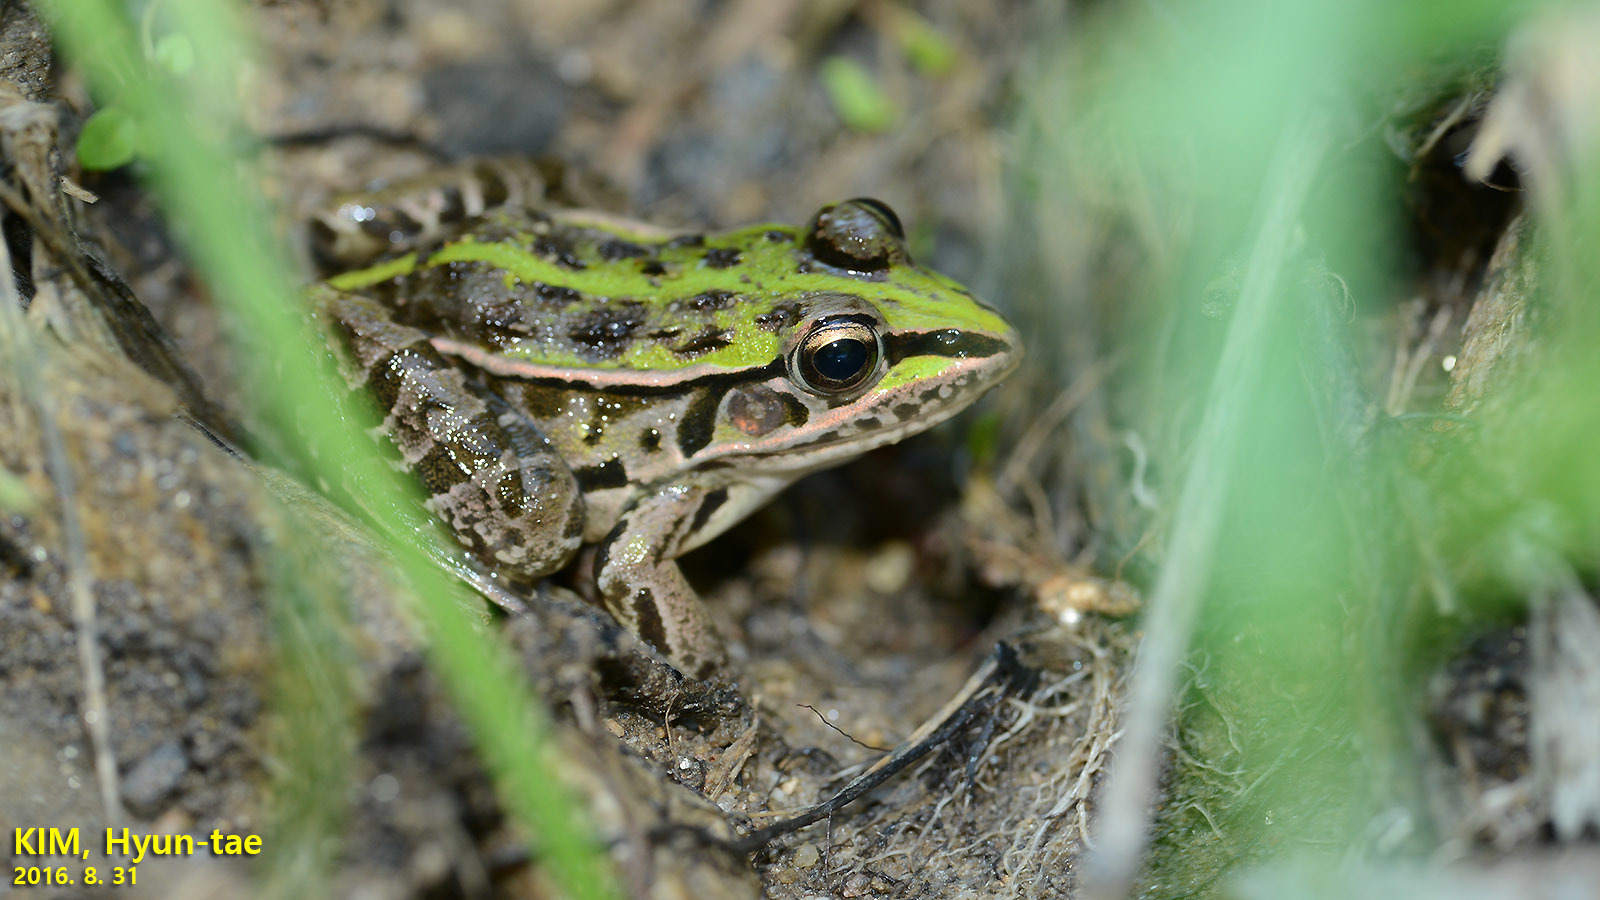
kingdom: Animalia
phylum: Chordata
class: Amphibia
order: Anura
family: Ranidae
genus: Pelophylax
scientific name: Pelophylax nigromaculatus
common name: Black-spotted pond frog
